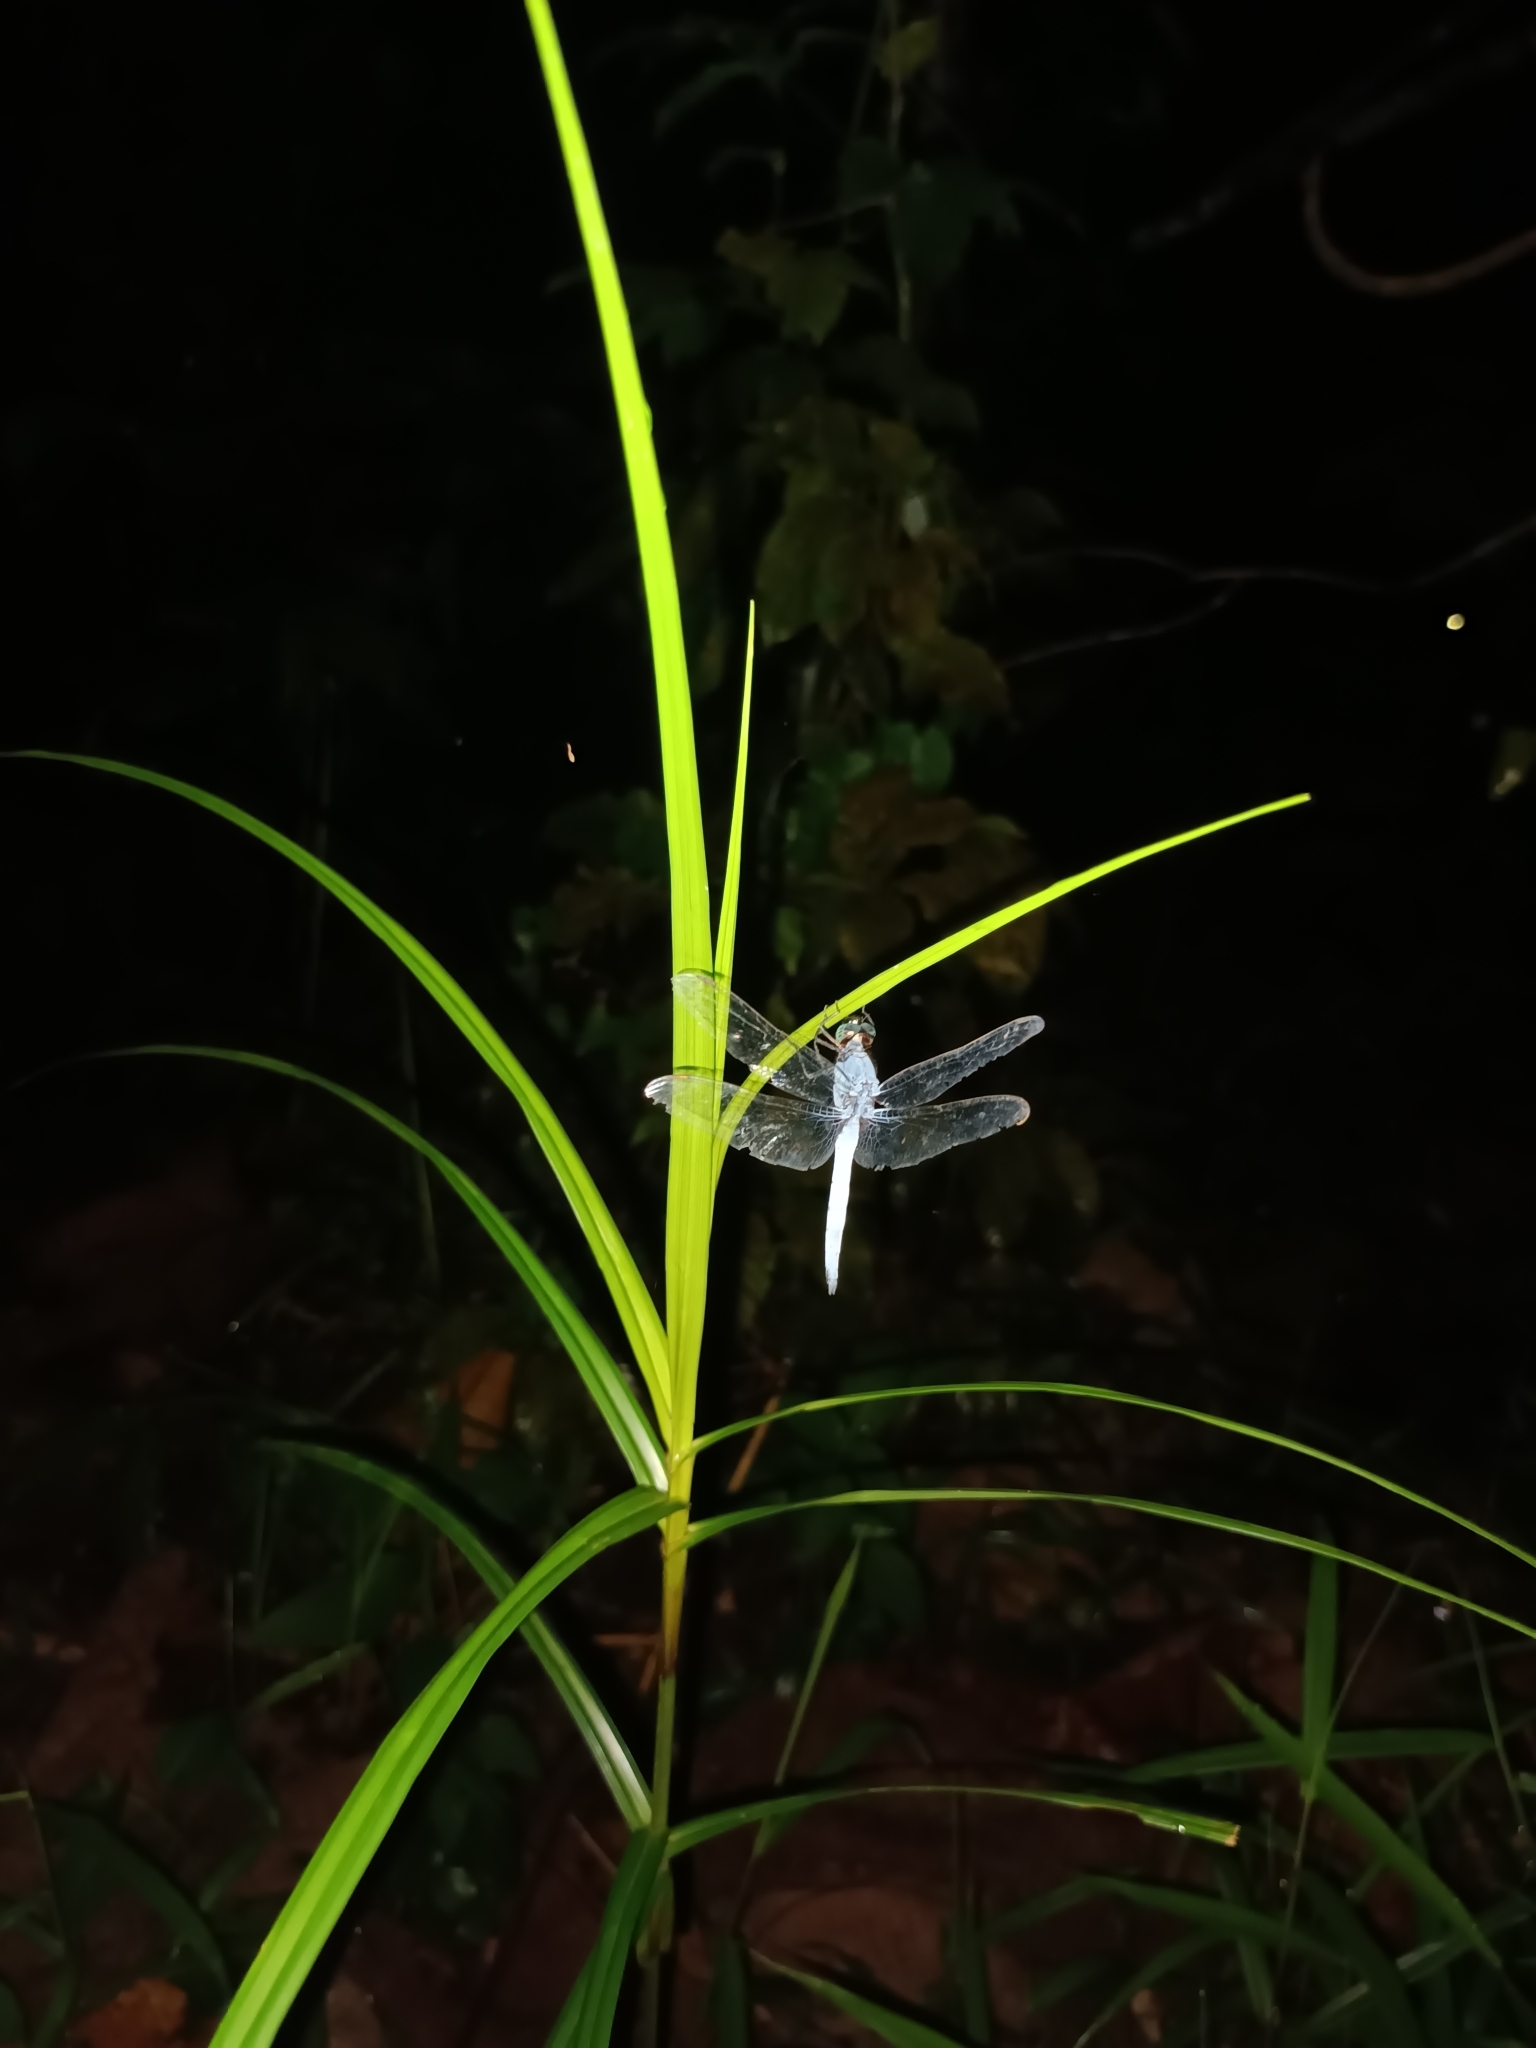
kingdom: Animalia
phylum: Arthropoda
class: Insecta
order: Odonata
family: Libellulidae
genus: Orthetrum
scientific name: Orthetrum glaucum
